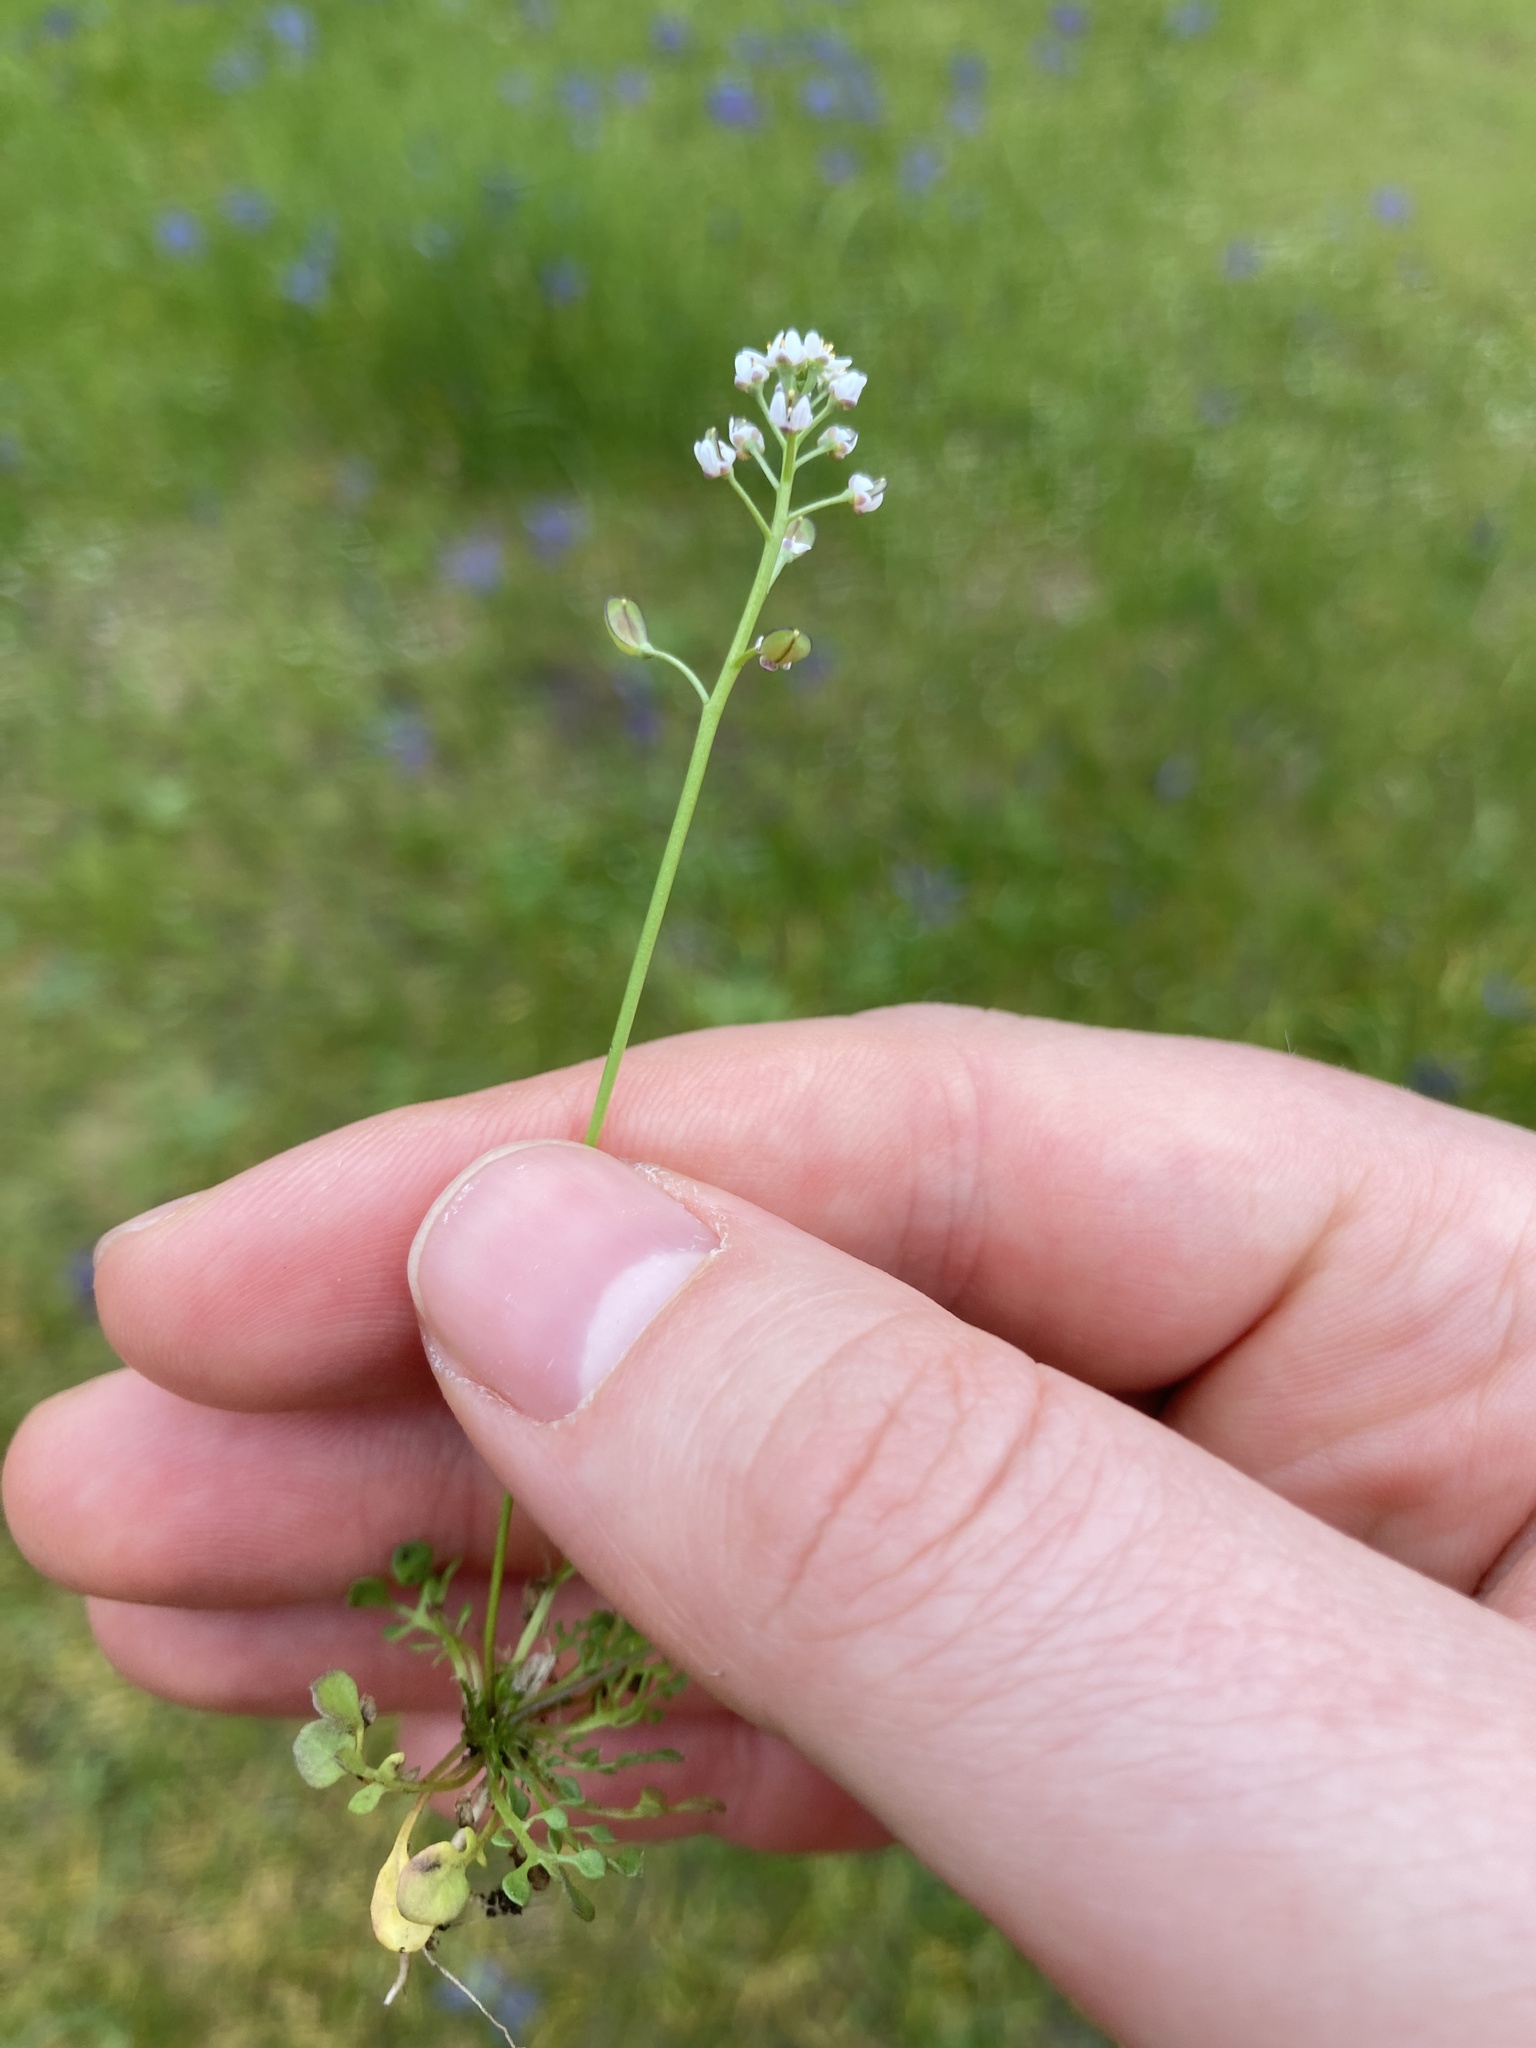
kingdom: Plantae
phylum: Tracheophyta
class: Magnoliopsida
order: Brassicales
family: Brassicaceae
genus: Teesdalia
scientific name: Teesdalia nudicaulis
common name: Shepherd's cress
